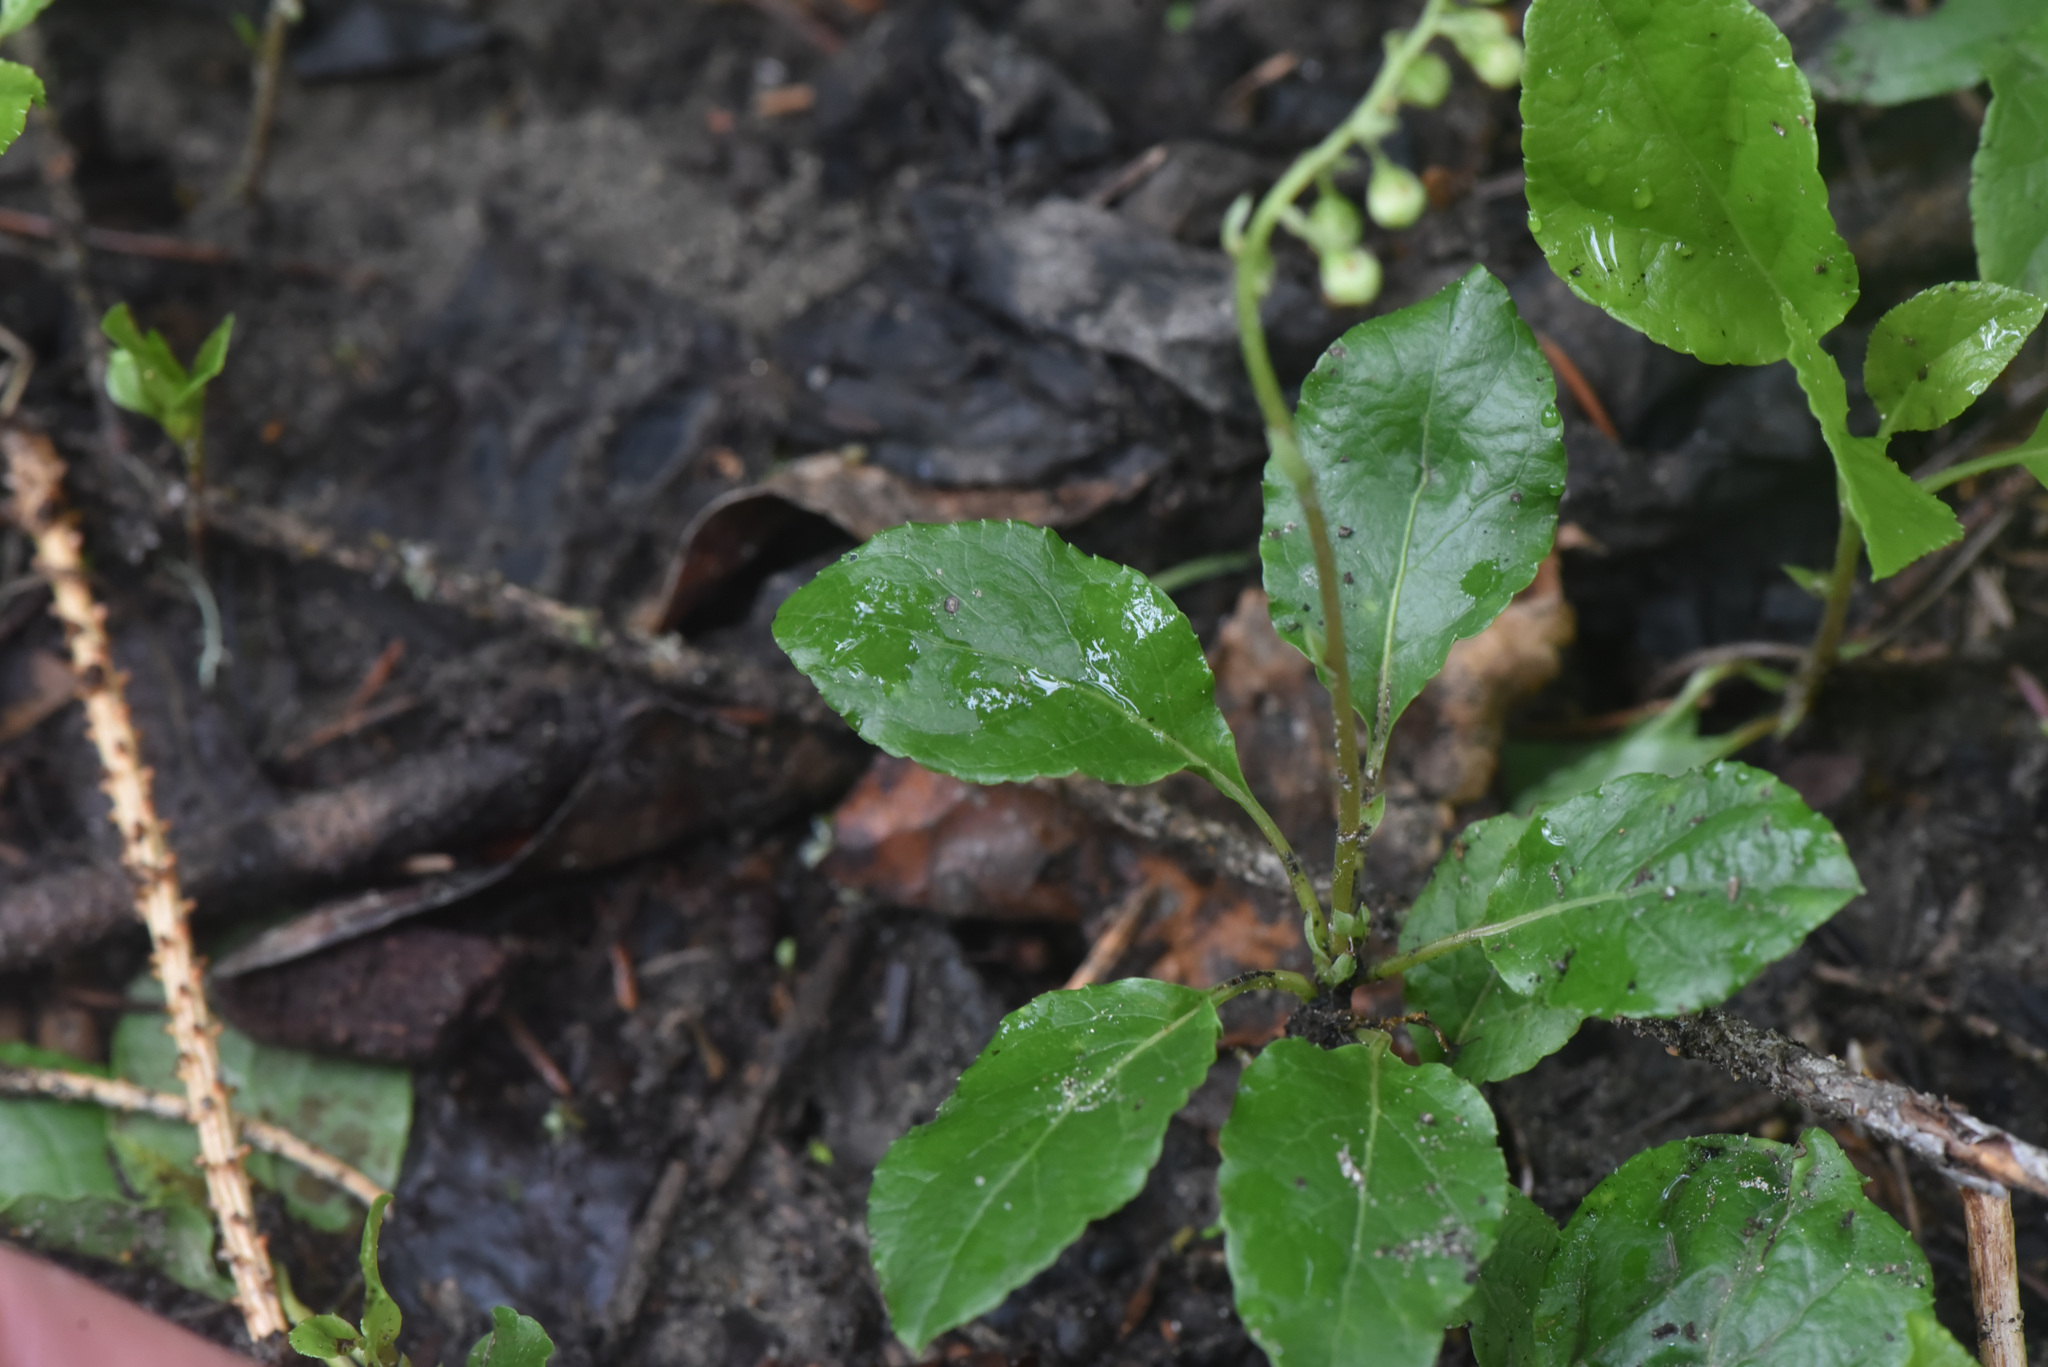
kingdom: Plantae
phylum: Tracheophyta
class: Magnoliopsida
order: Ericales
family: Ericaceae
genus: Orthilia
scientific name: Orthilia secunda
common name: One-sided orthilia
